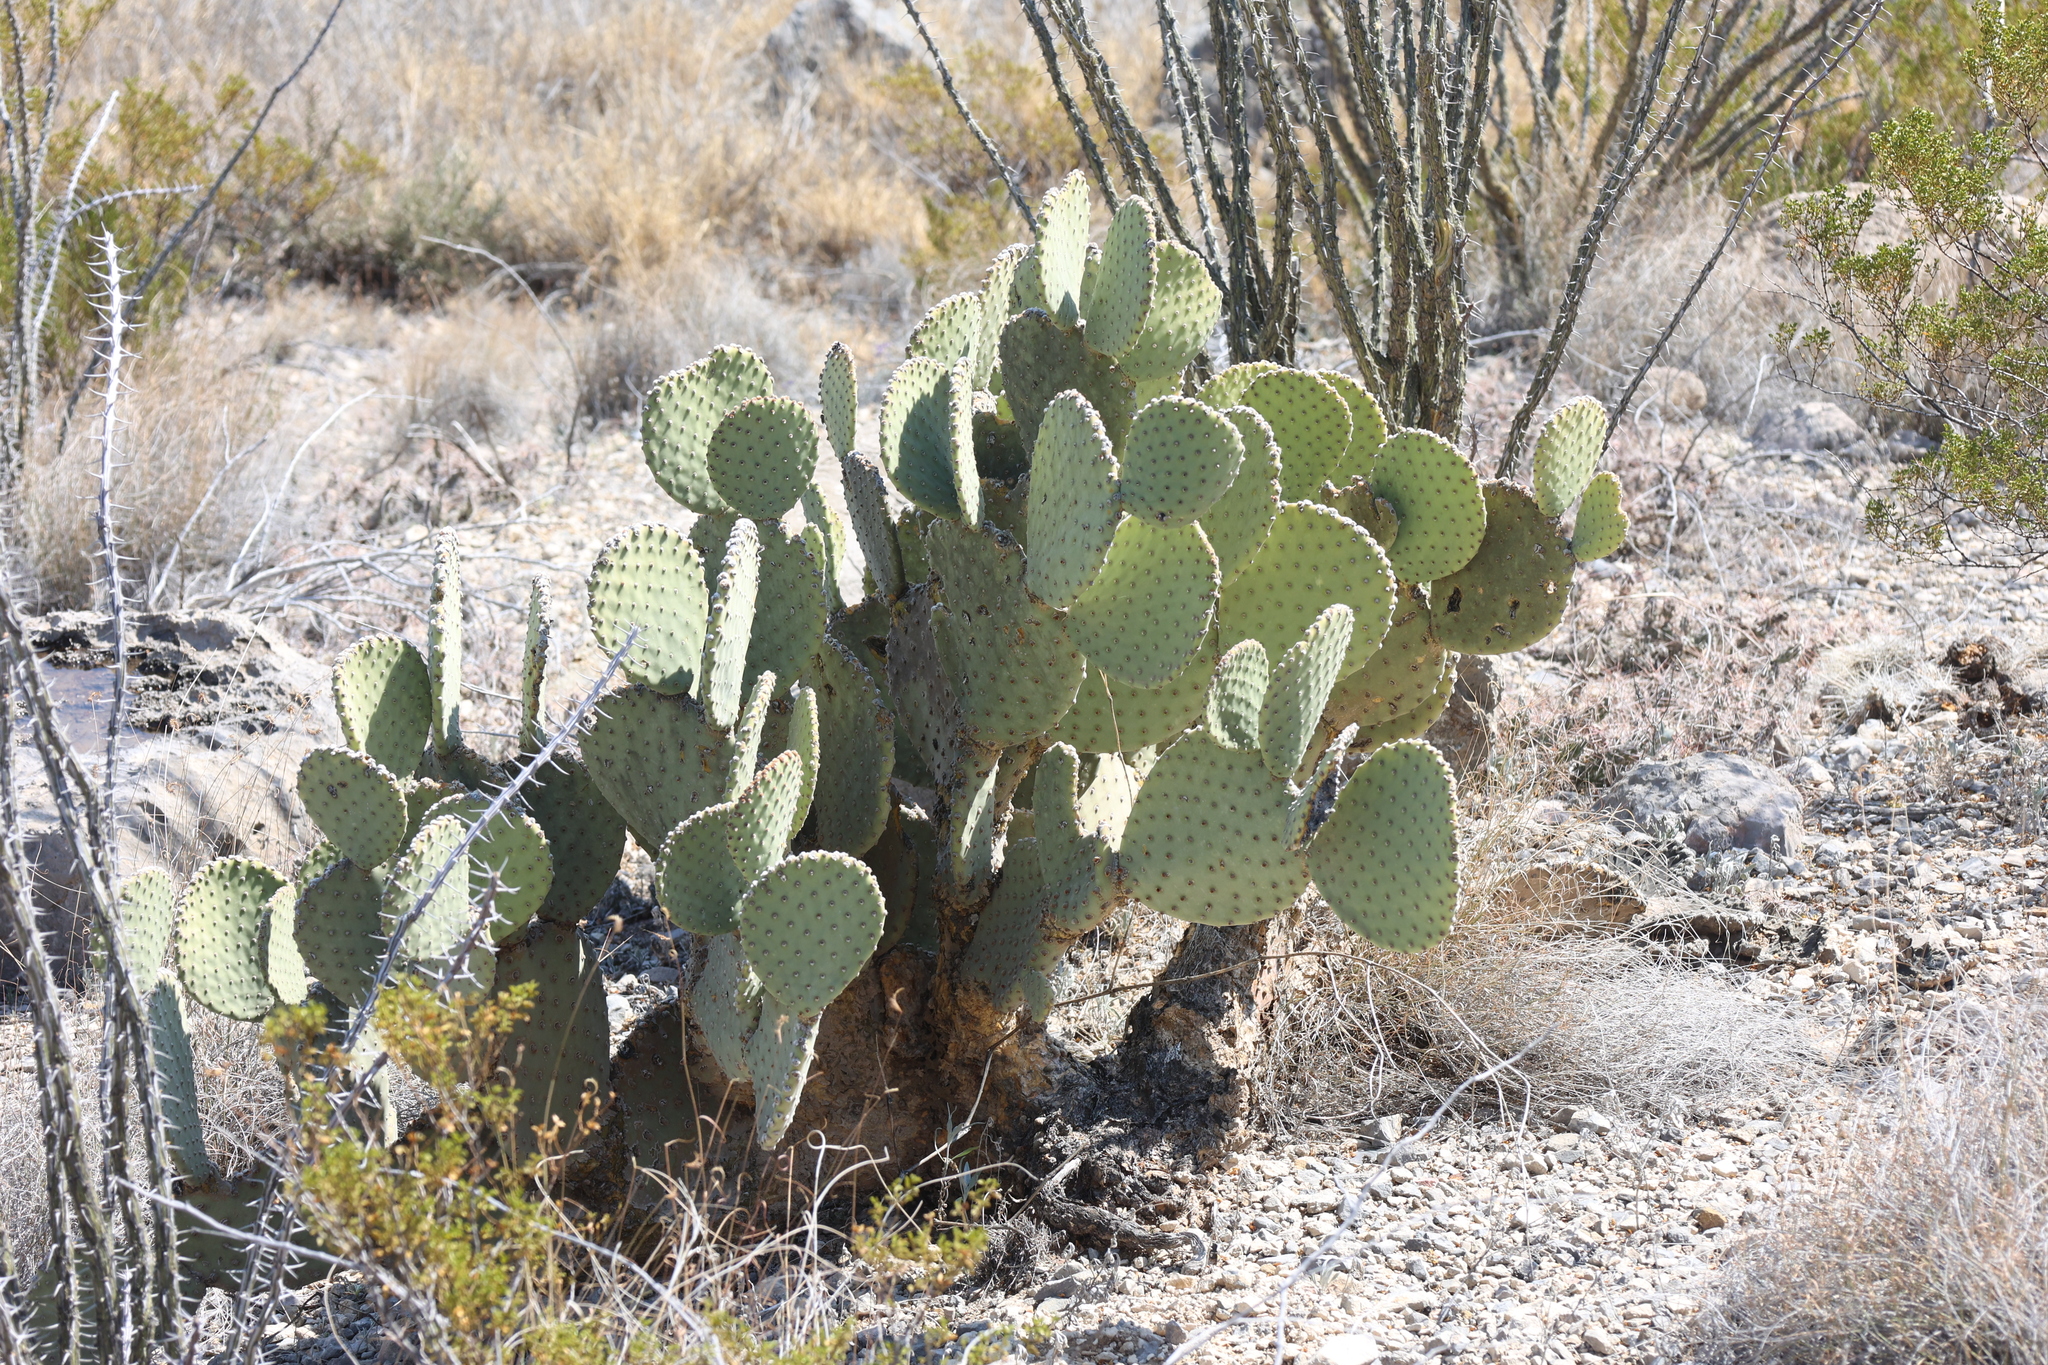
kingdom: Plantae
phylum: Tracheophyta
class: Magnoliopsida
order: Caryophyllales
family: Cactaceae
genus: Opuntia
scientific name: Opuntia rufida
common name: Blind pricklypear
